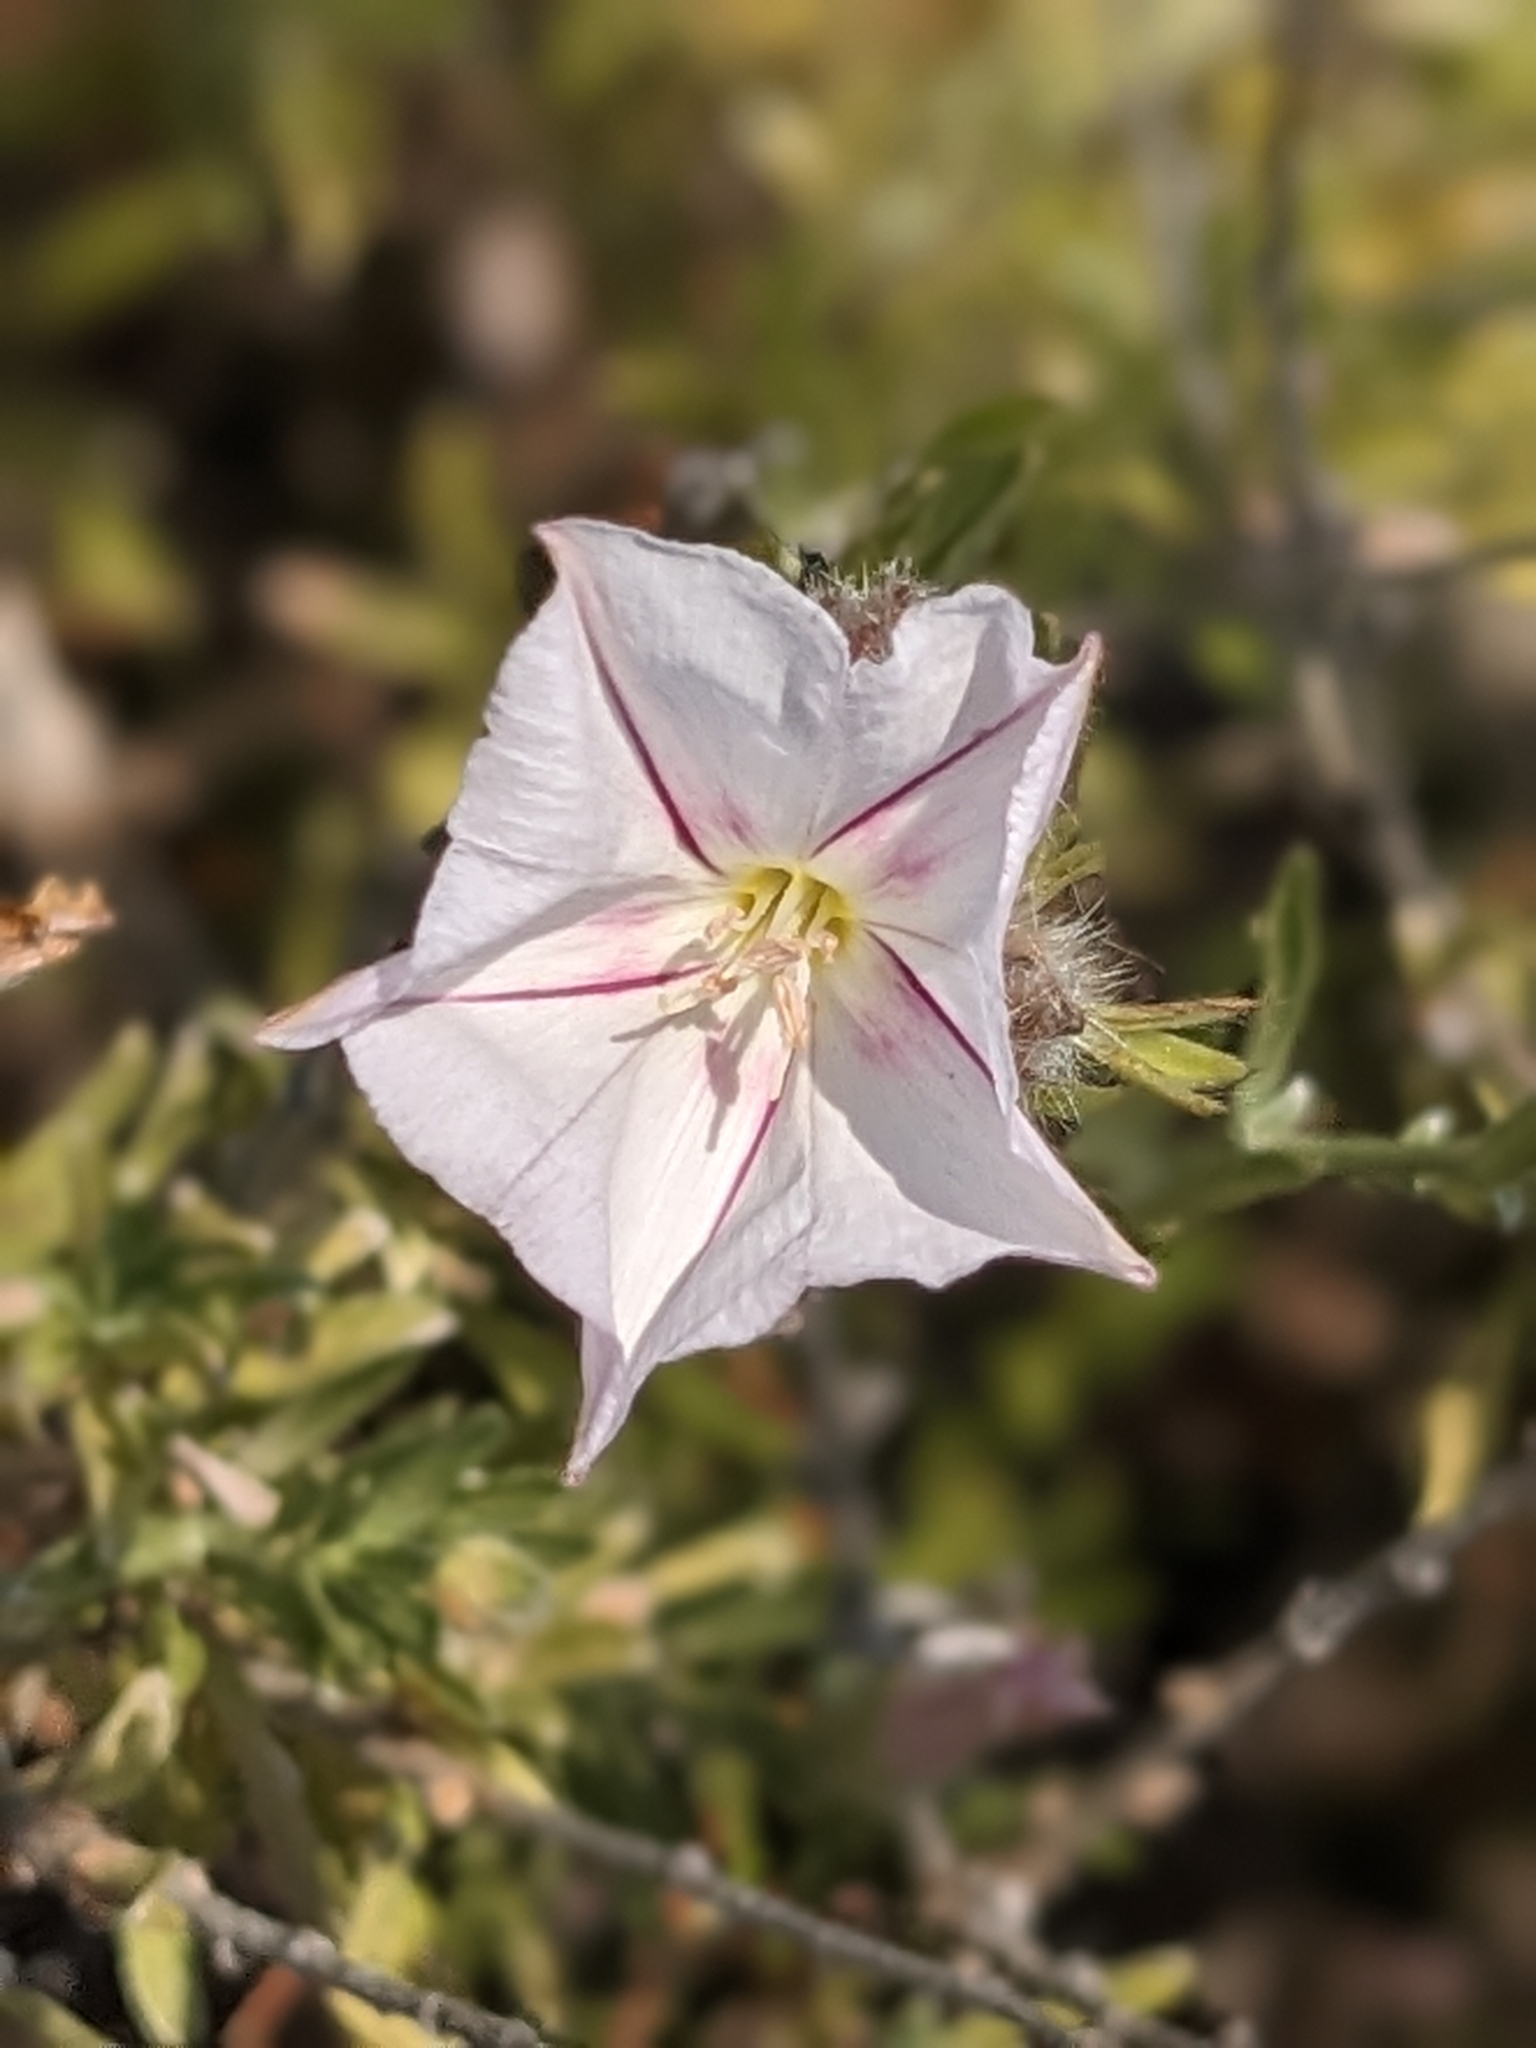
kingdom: Plantae
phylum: Tracheophyta
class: Magnoliopsida
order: Solanales
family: Convolvulaceae
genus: Convolvulus
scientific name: Convolvulus oleifolius
